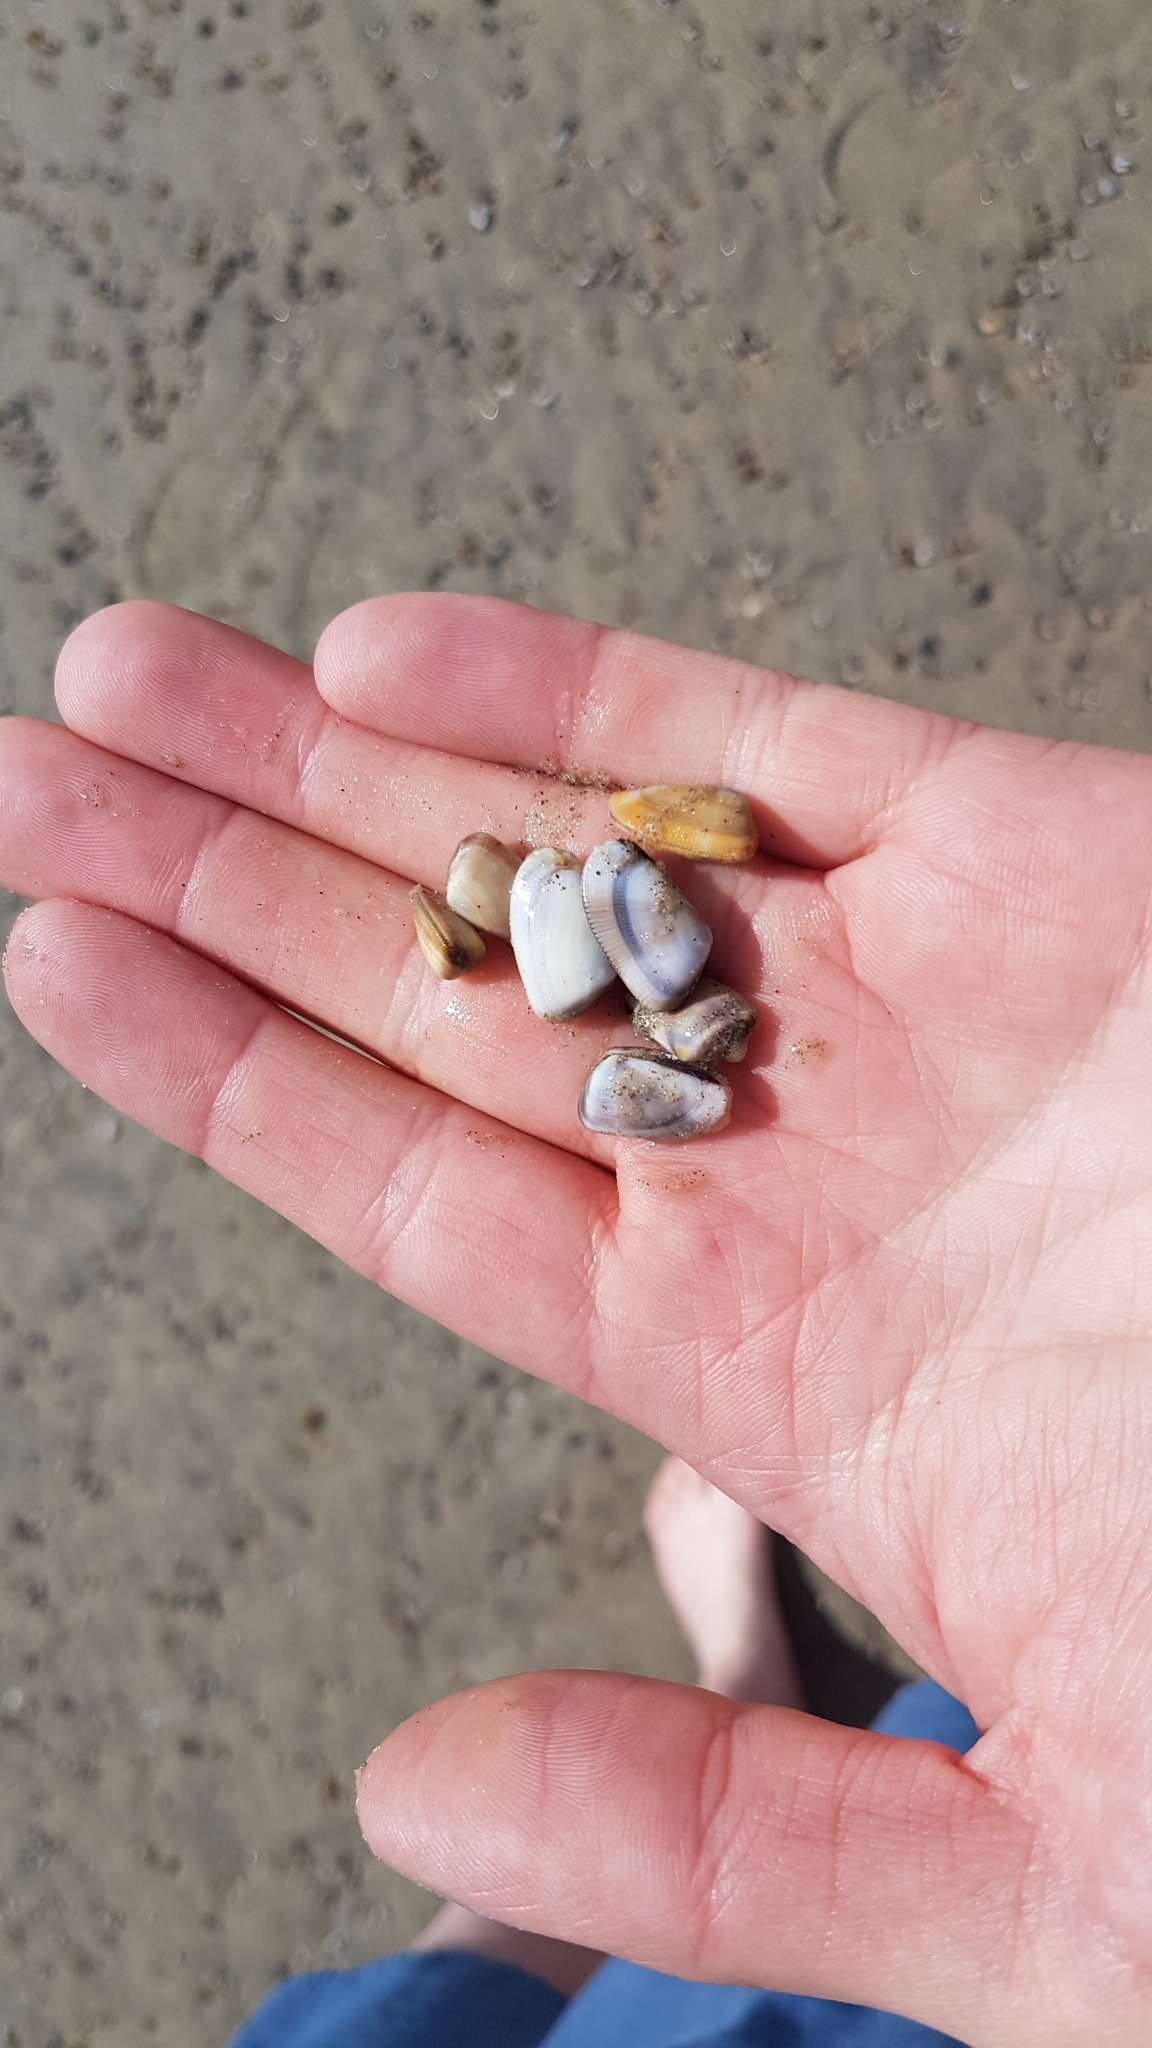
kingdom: Animalia
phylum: Mollusca
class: Bivalvia
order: Cardiida
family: Donacidae
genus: Donax
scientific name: Donax gouldii
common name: Gould beanclam
